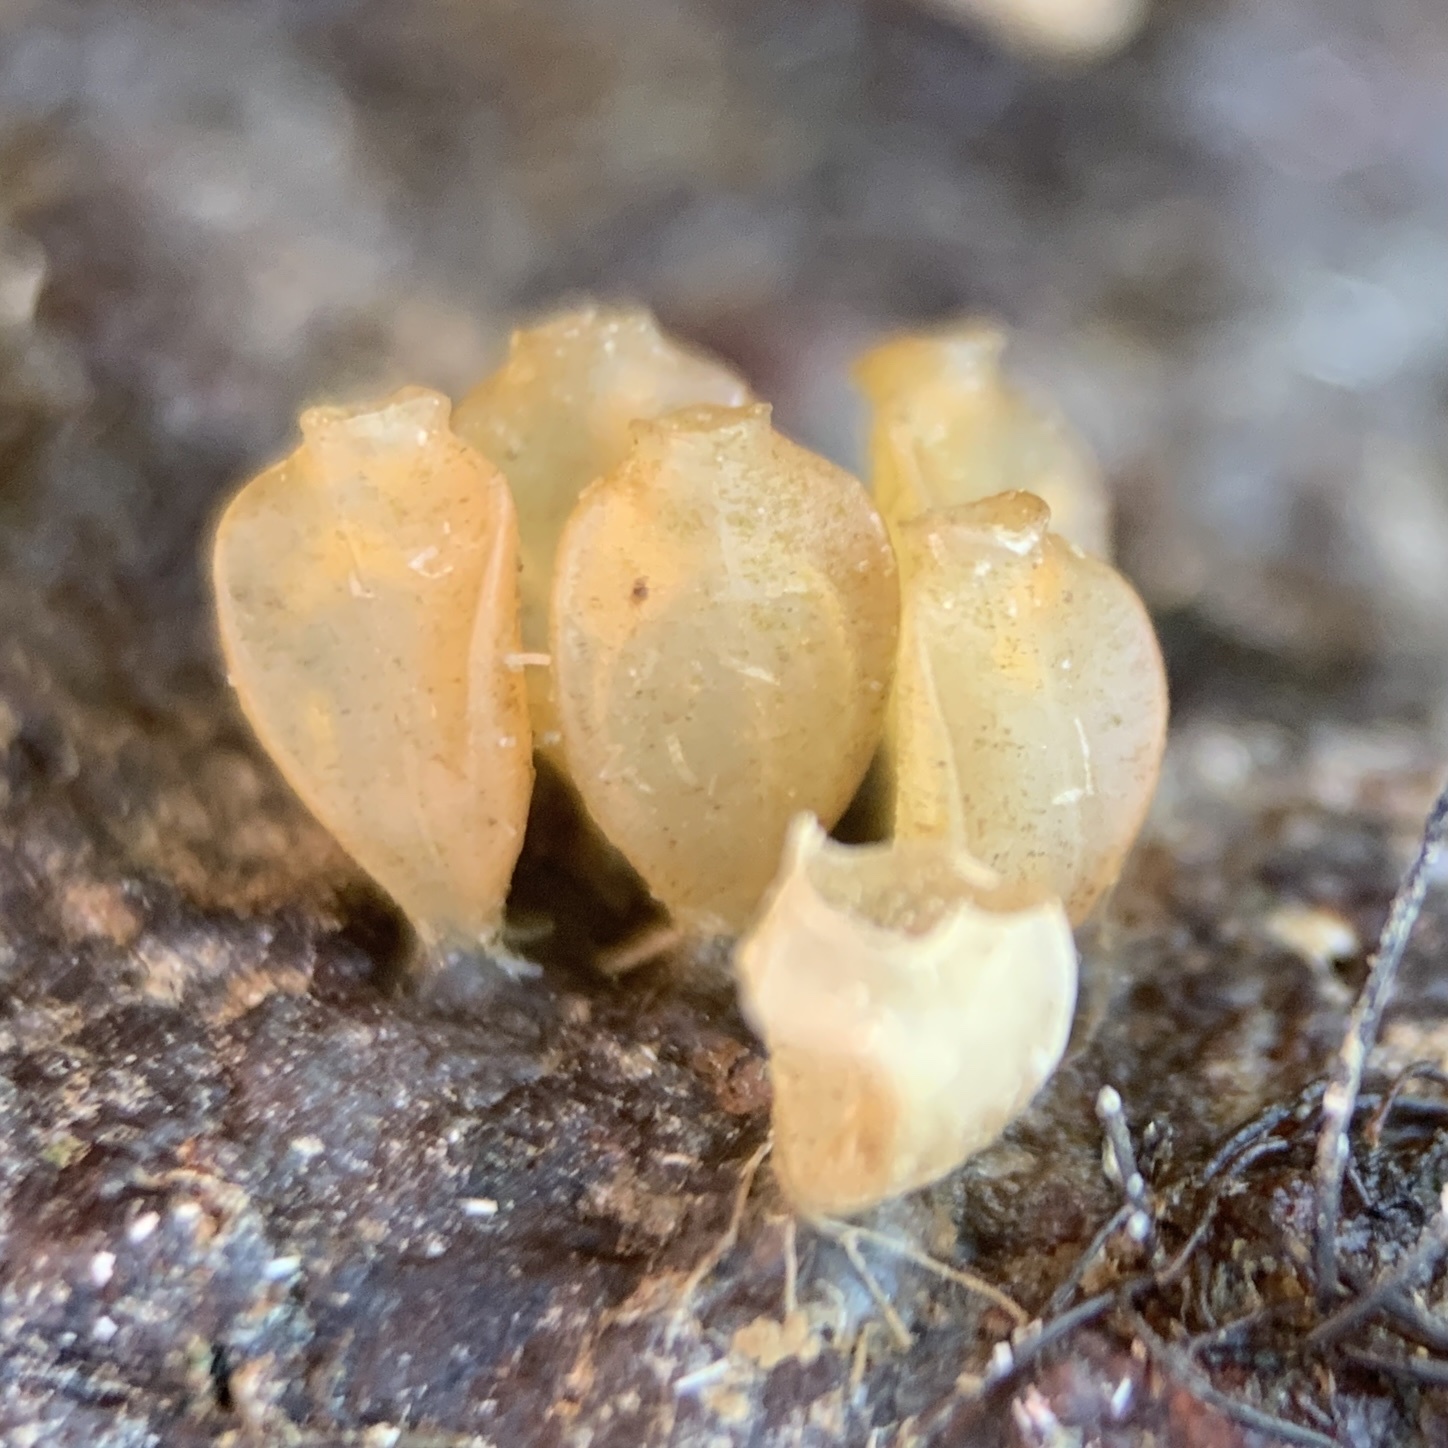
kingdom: Animalia
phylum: Mollusca
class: Gastropoda
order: Neogastropoda
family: Muricidae
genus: Urosalpinx
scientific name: Urosalpinx cinerea
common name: American sting winkle
